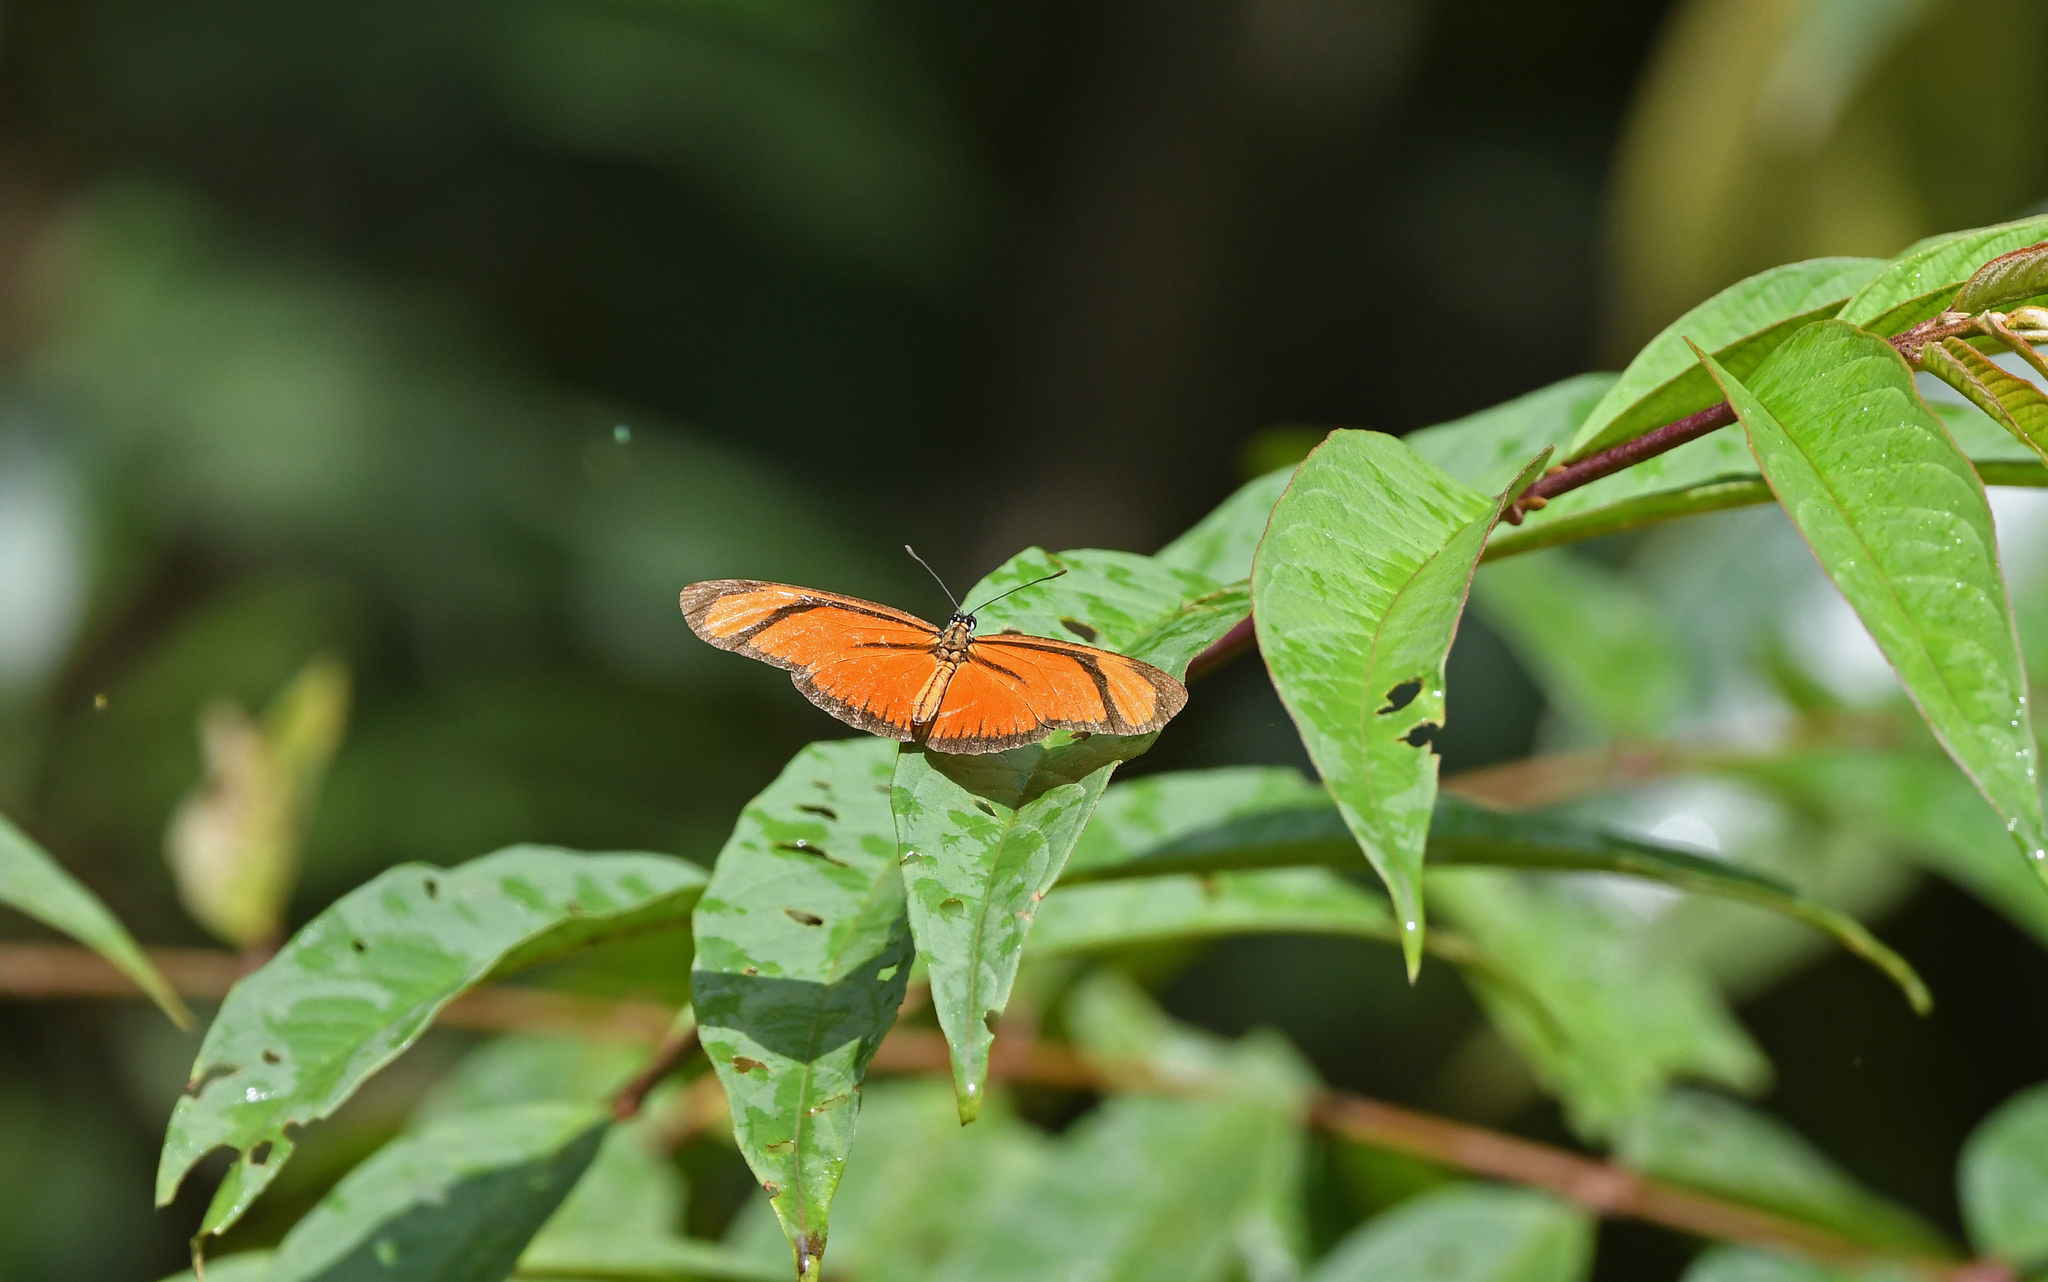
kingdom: Animalia
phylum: Arthropoda
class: Insecta
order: Lepidoptera
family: Nymphalidae
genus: Heliconius
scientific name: Heliconius aliphera
